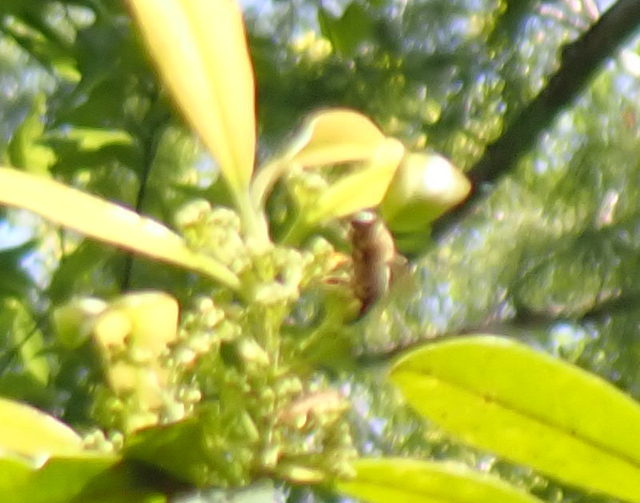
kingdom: Animalia
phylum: Arthropoda
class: Insecta
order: Hymenoptera
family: Apidae
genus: Apis
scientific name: Apis mellifera
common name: Honey bee
